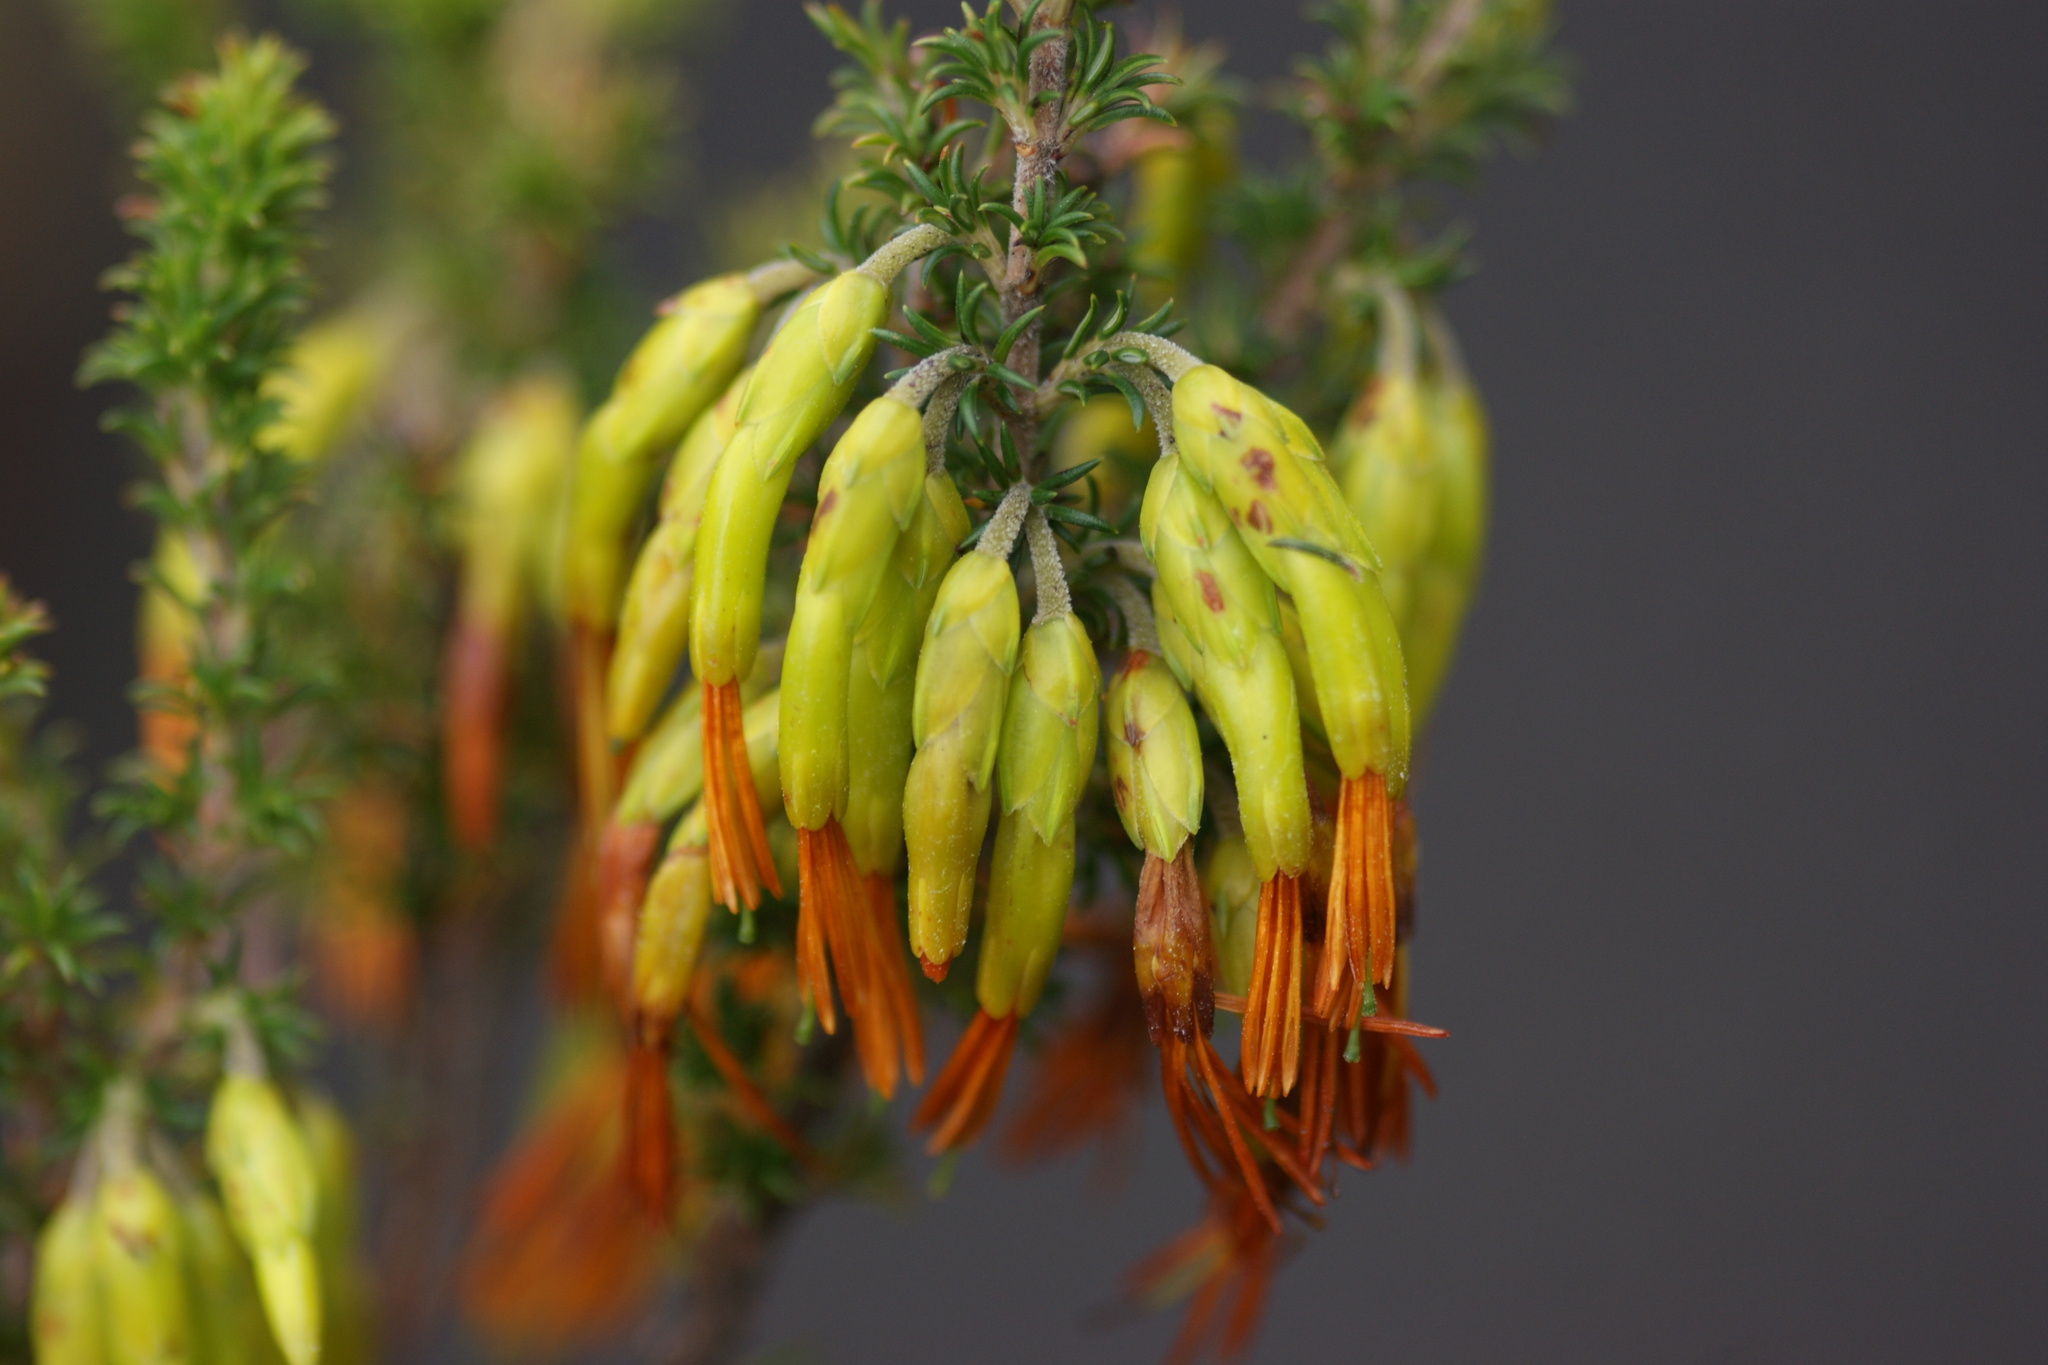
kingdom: Plantae
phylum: Tracheophyta
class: Magnoliopsida
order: Ericales
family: Ericaceae
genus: Erica
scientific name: Erica coccinea
